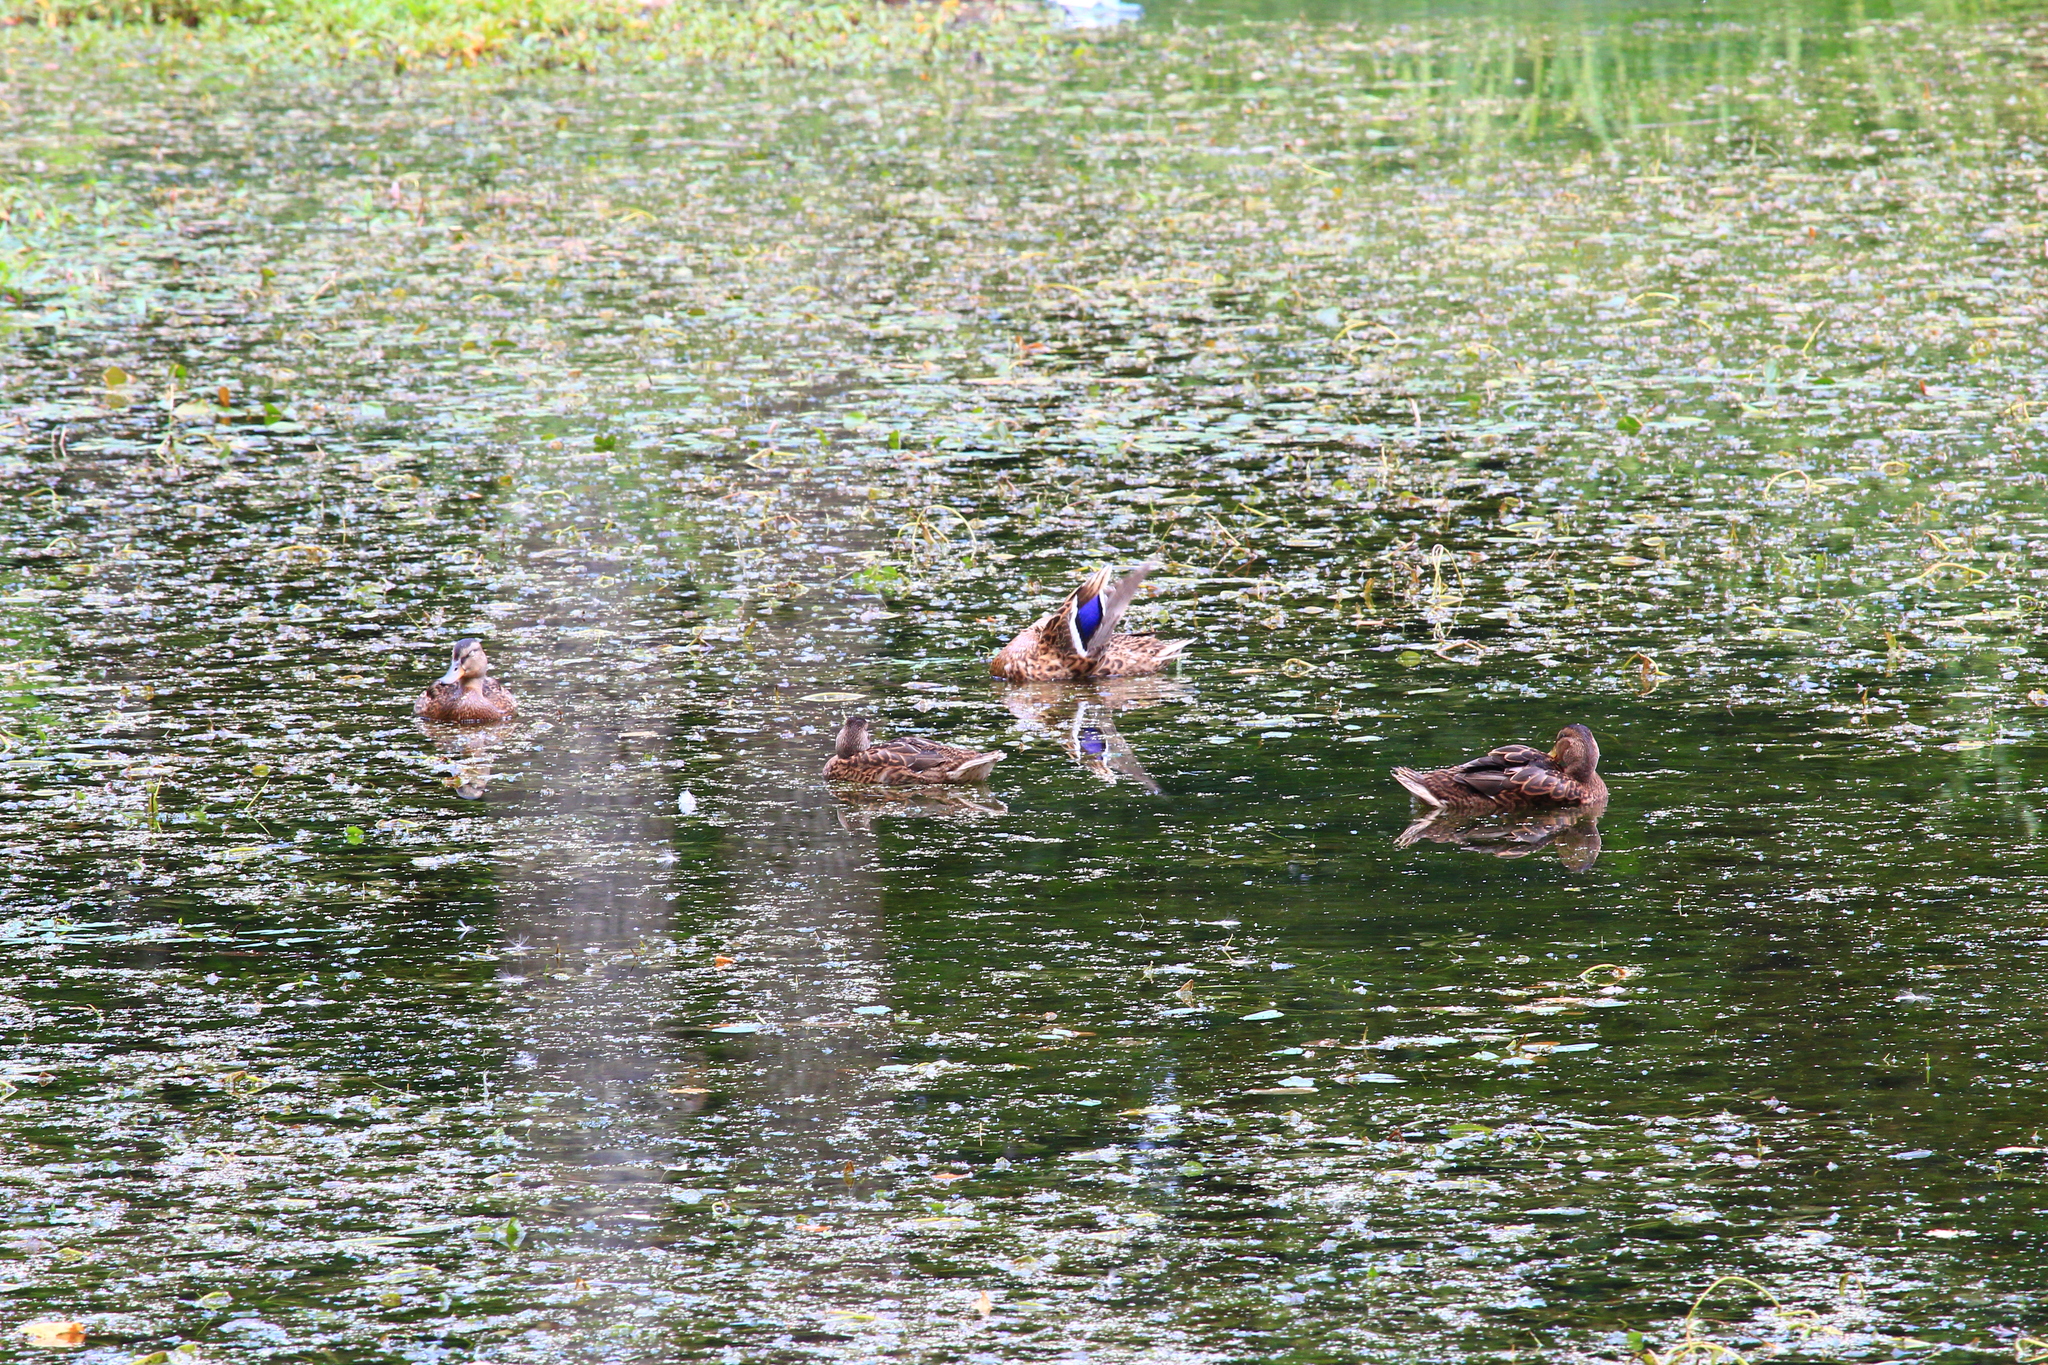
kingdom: Animalia
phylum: Chordata
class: Aves
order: Anseriformes
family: Anatidae
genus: Anas
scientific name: Anas platyrhynchos
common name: Mallard
